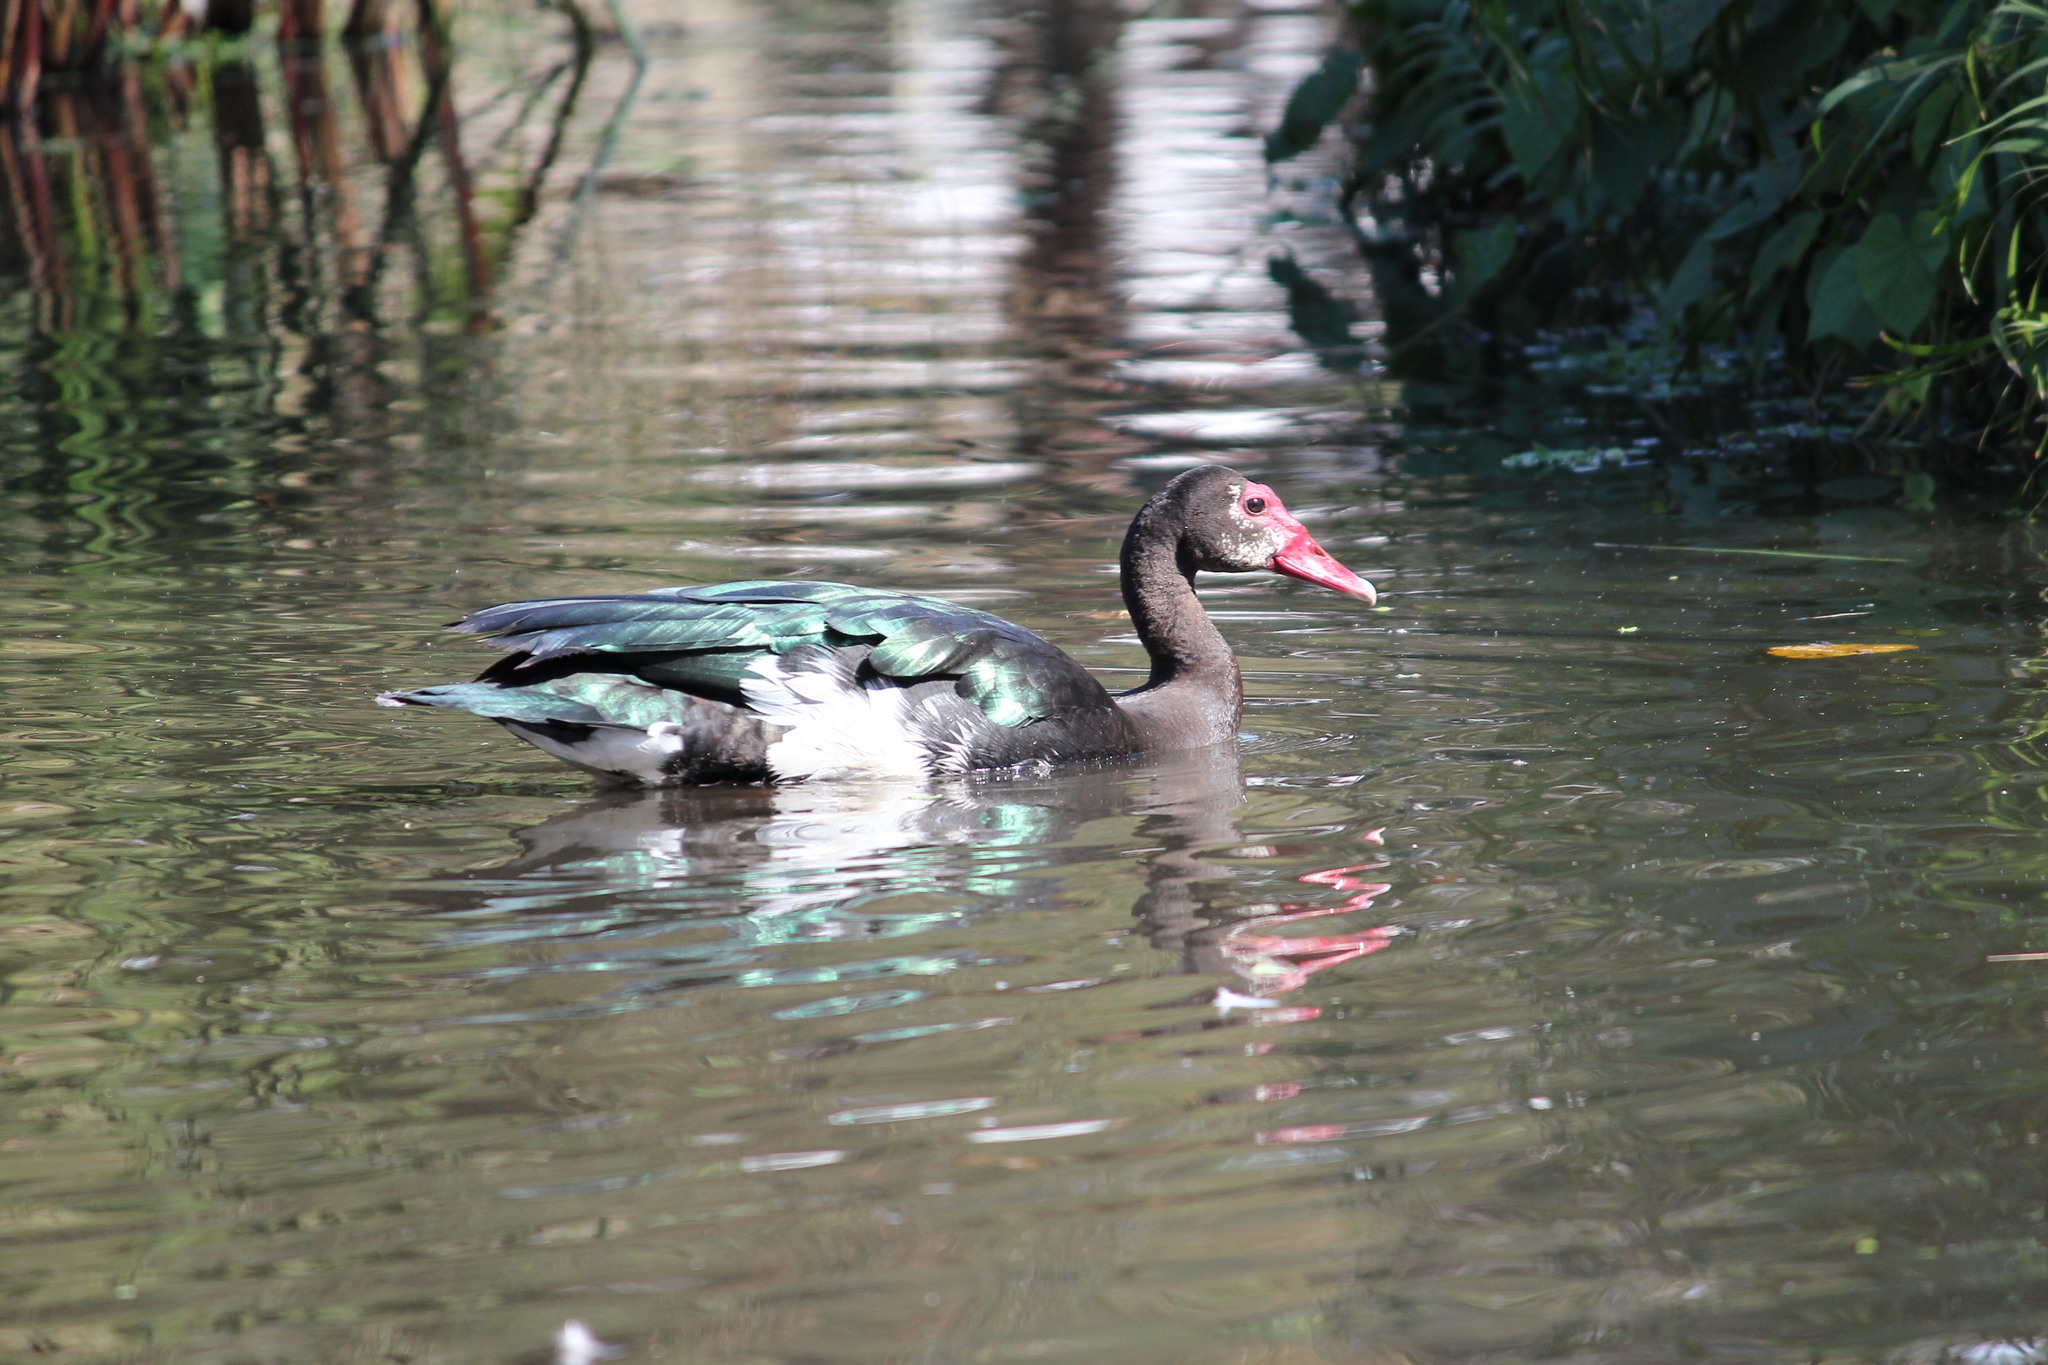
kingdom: Animalia
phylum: Chordata
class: Aves
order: Anseriformes
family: Anatidae
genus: Plectropterus
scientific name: Plectropterus gambensis
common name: Spur-winged goose
